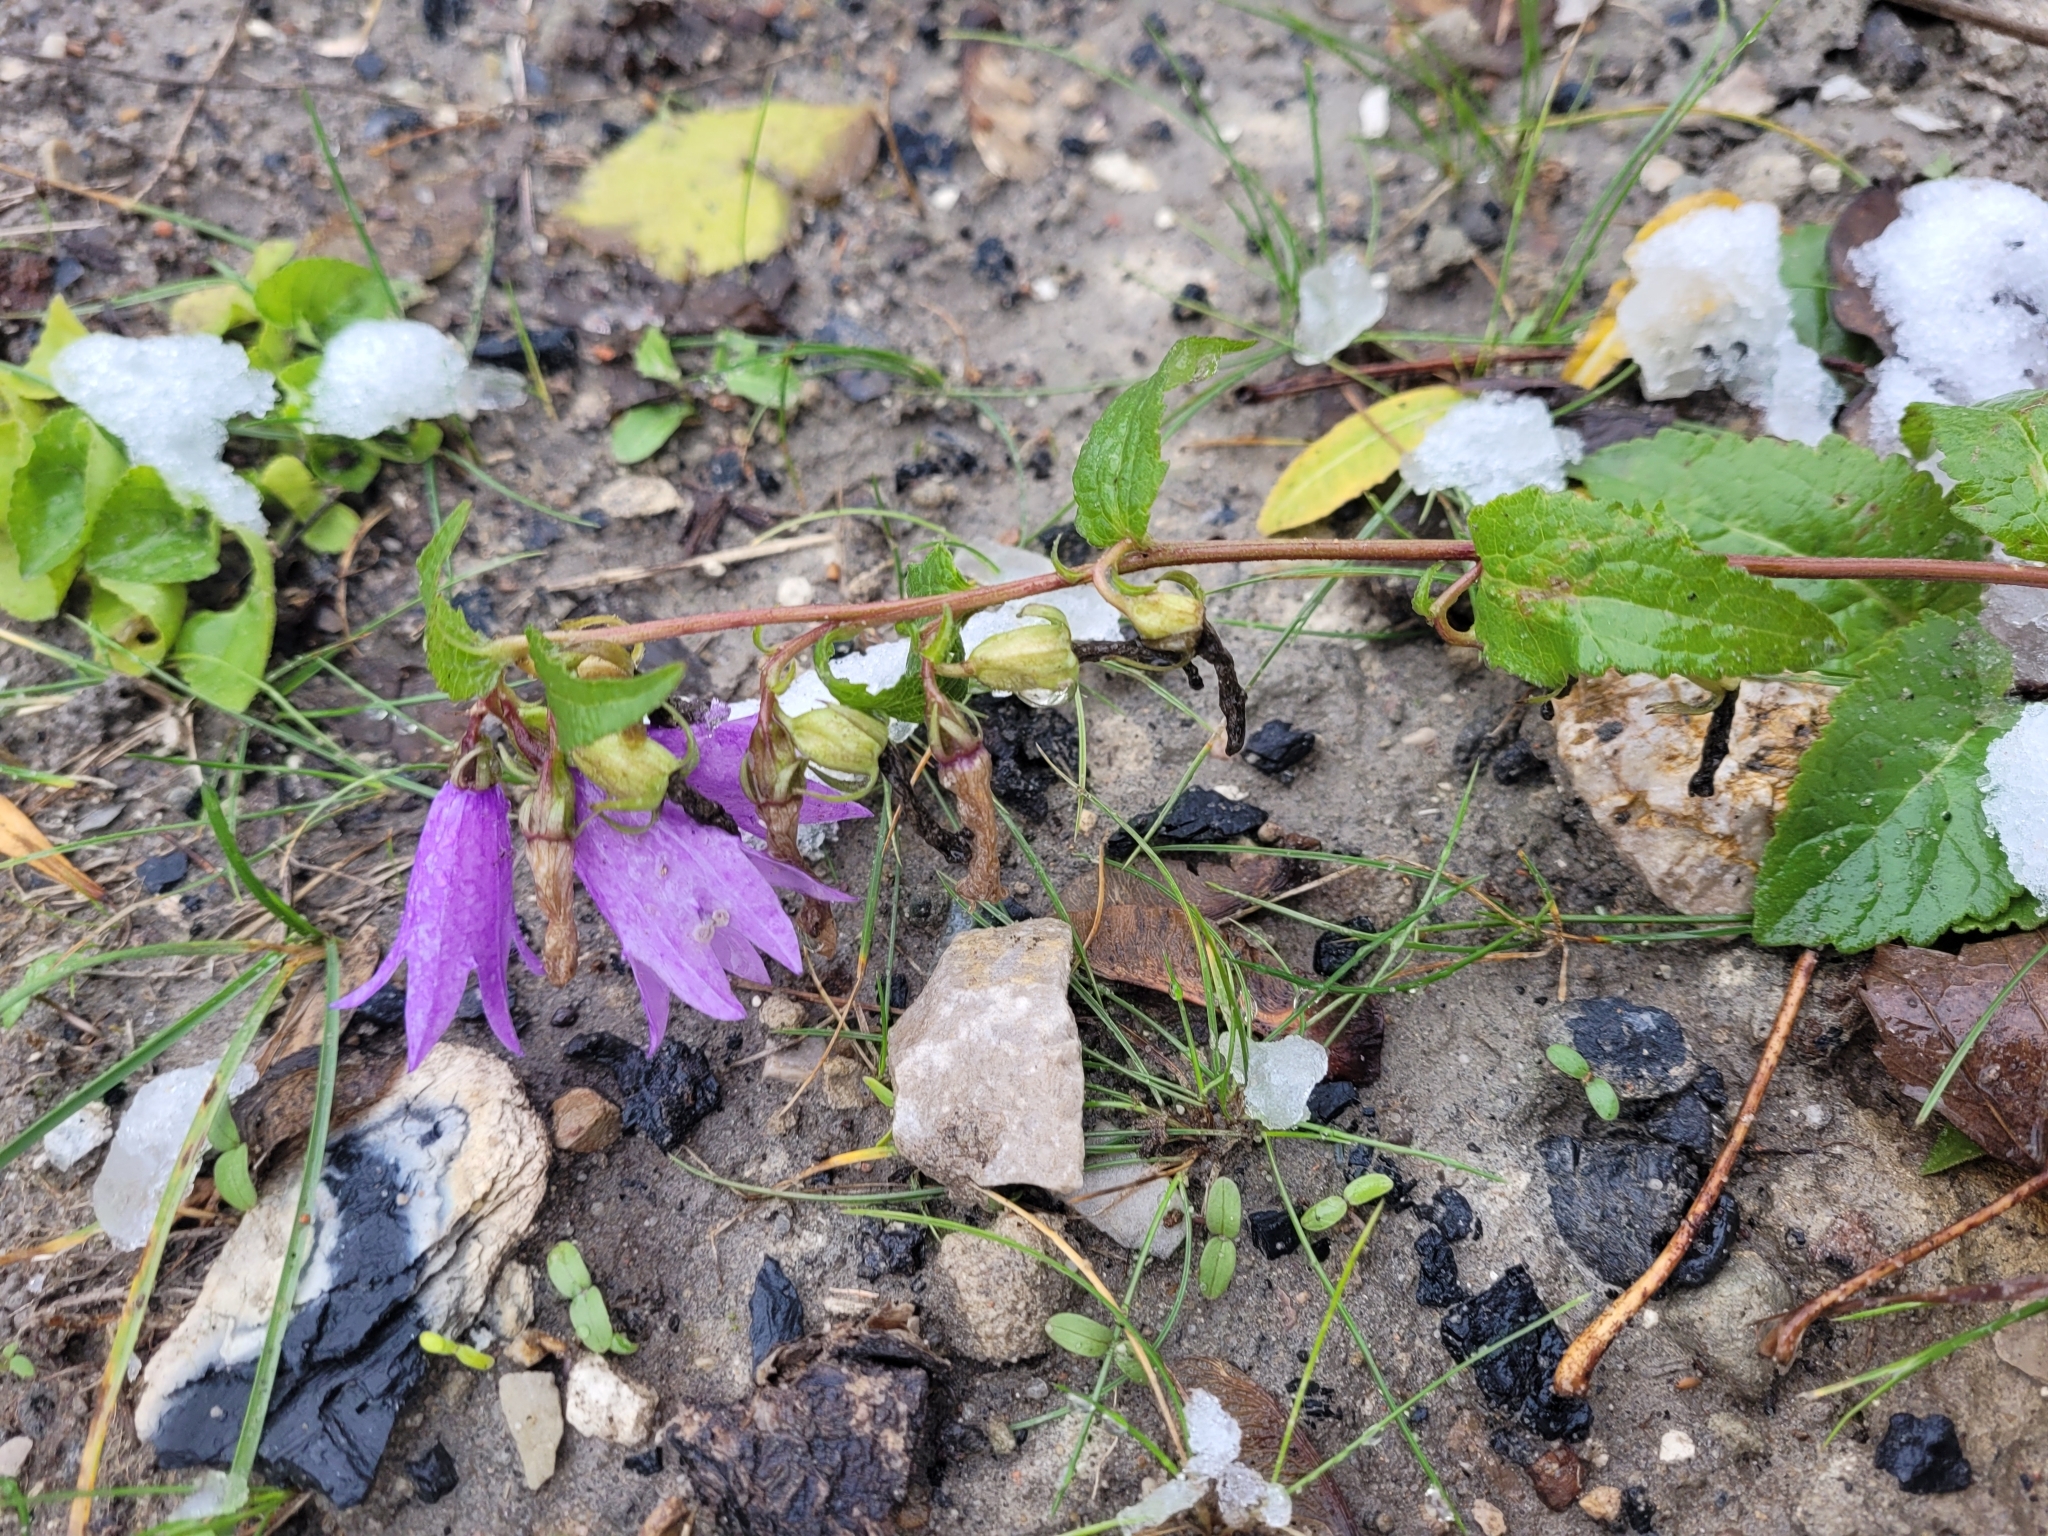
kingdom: Plantae
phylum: Tracheophyta
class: Magnoliopsida
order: Asterales
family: Campanulaceae
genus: Campanula
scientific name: Campanula rapunculoides
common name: Creeping bellflower
